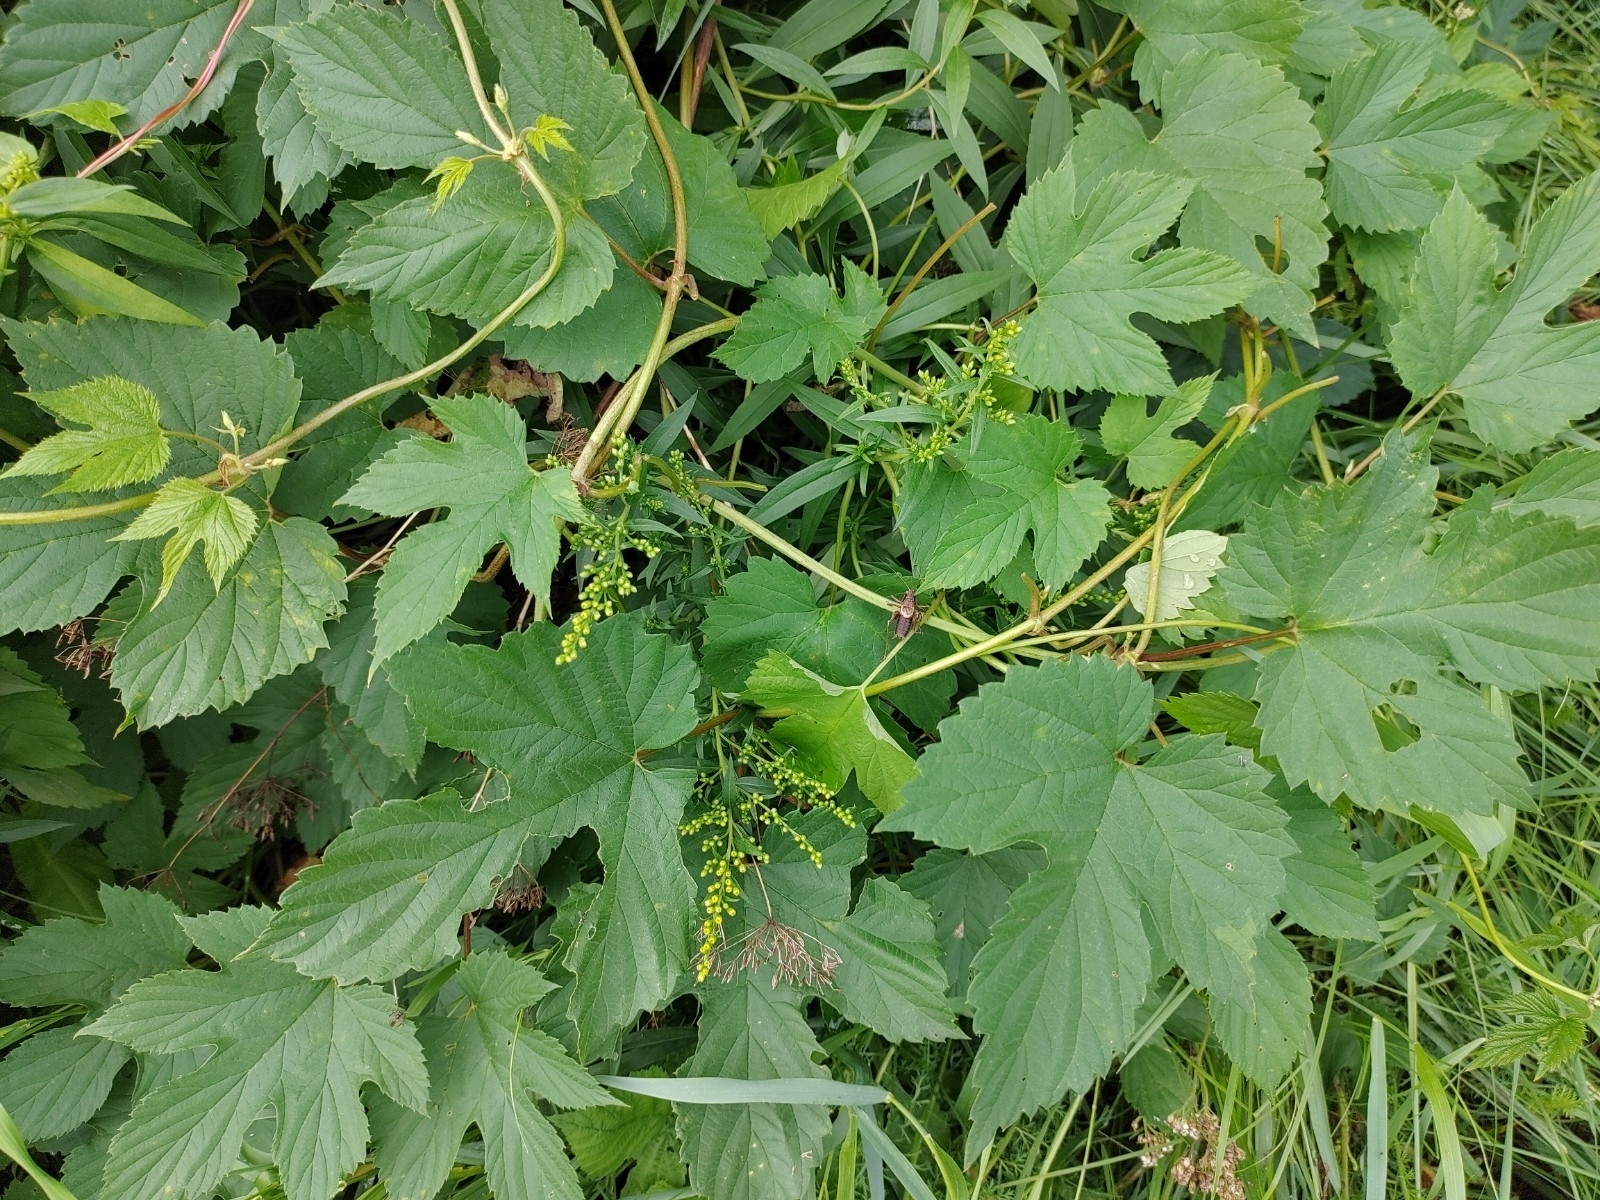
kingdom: Plantae
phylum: Tracheophyta
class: Magnoliopsida
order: Rosales
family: Cannabaceae
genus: Humulus
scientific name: Humulus lupulus
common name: Hop
